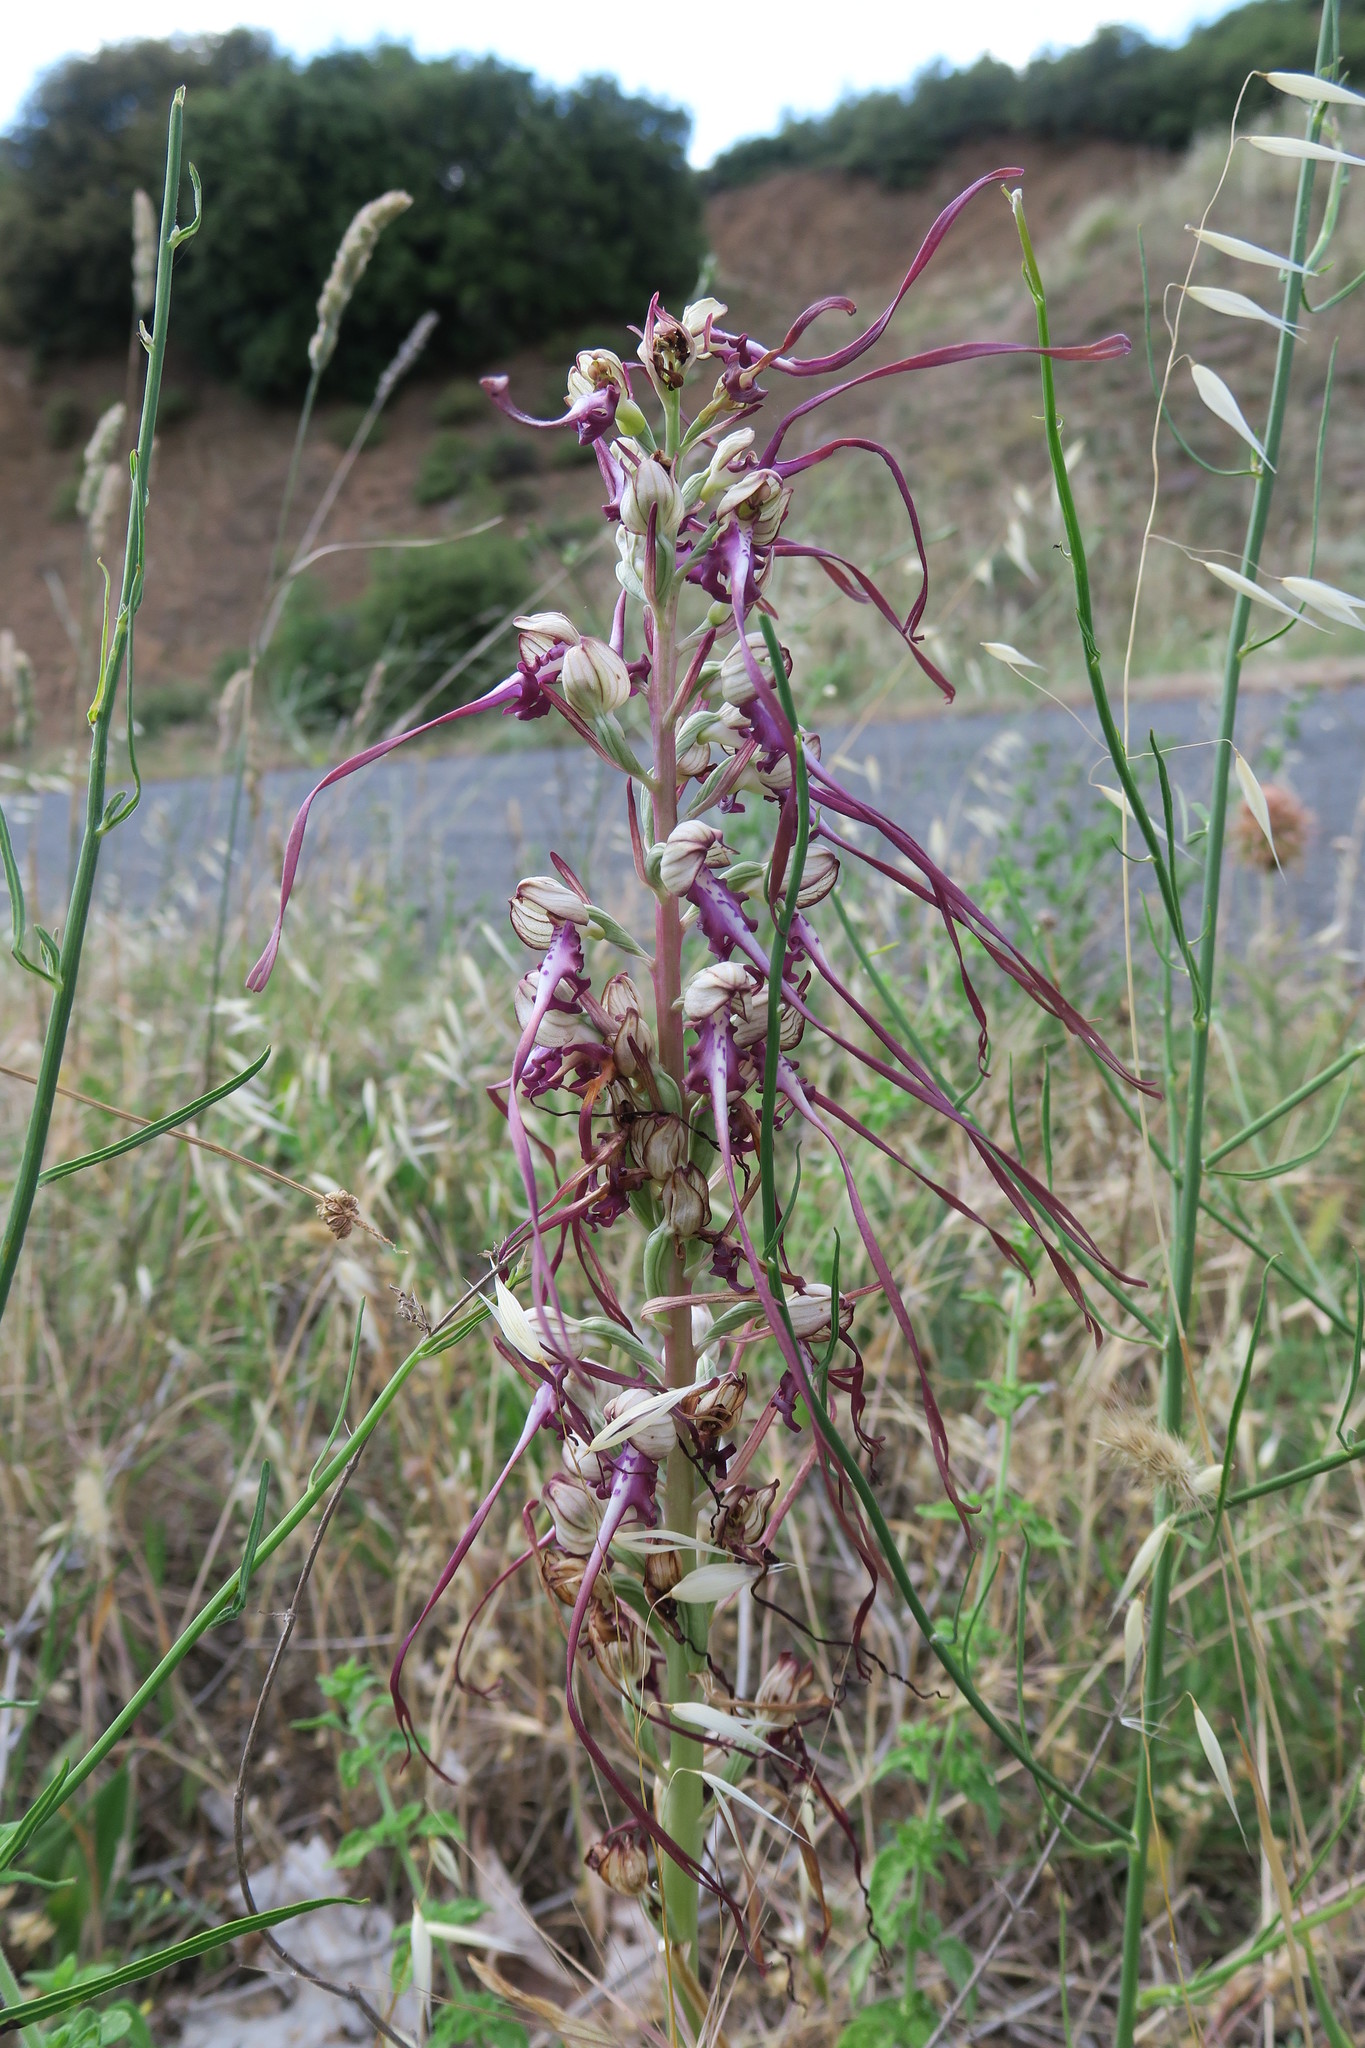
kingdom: Plantae
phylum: Tracheophyta
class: Liliopsida
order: Asparagales
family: Orchidaceae
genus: Himantoglossum
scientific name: Himantoglossum calcaratum
